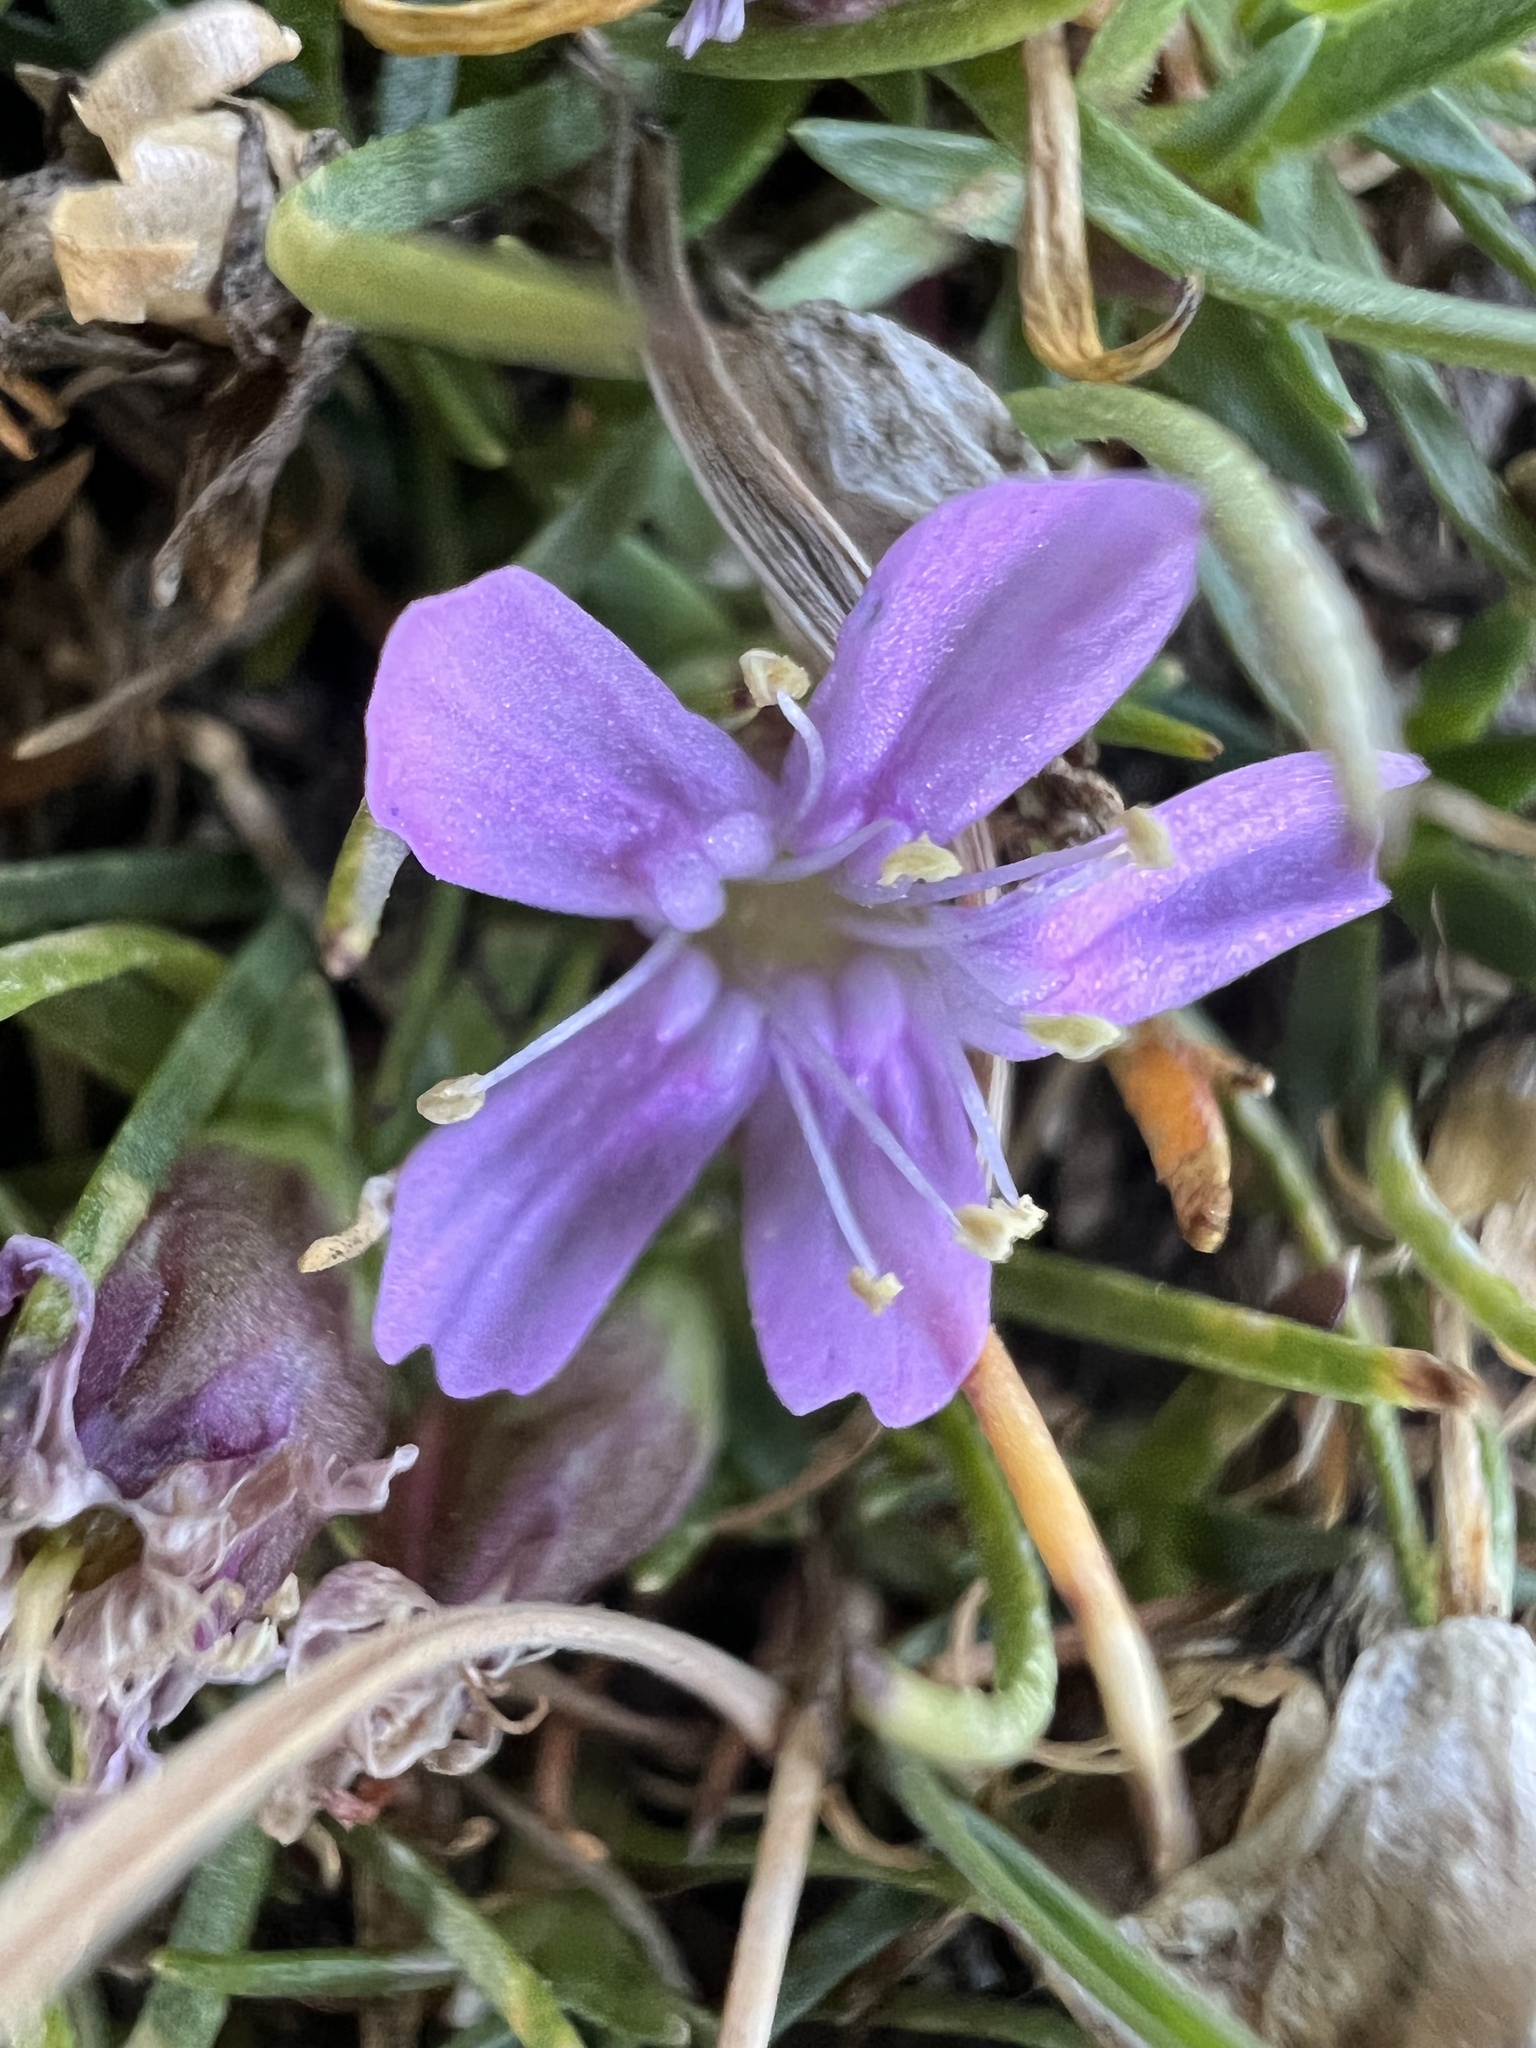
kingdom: Plantae
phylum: Tracheophyta
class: Magnoliopsida
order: Caryophyllales
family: Caryophyllaceae
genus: Silene
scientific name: Silene acaulis
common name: Moss campion
